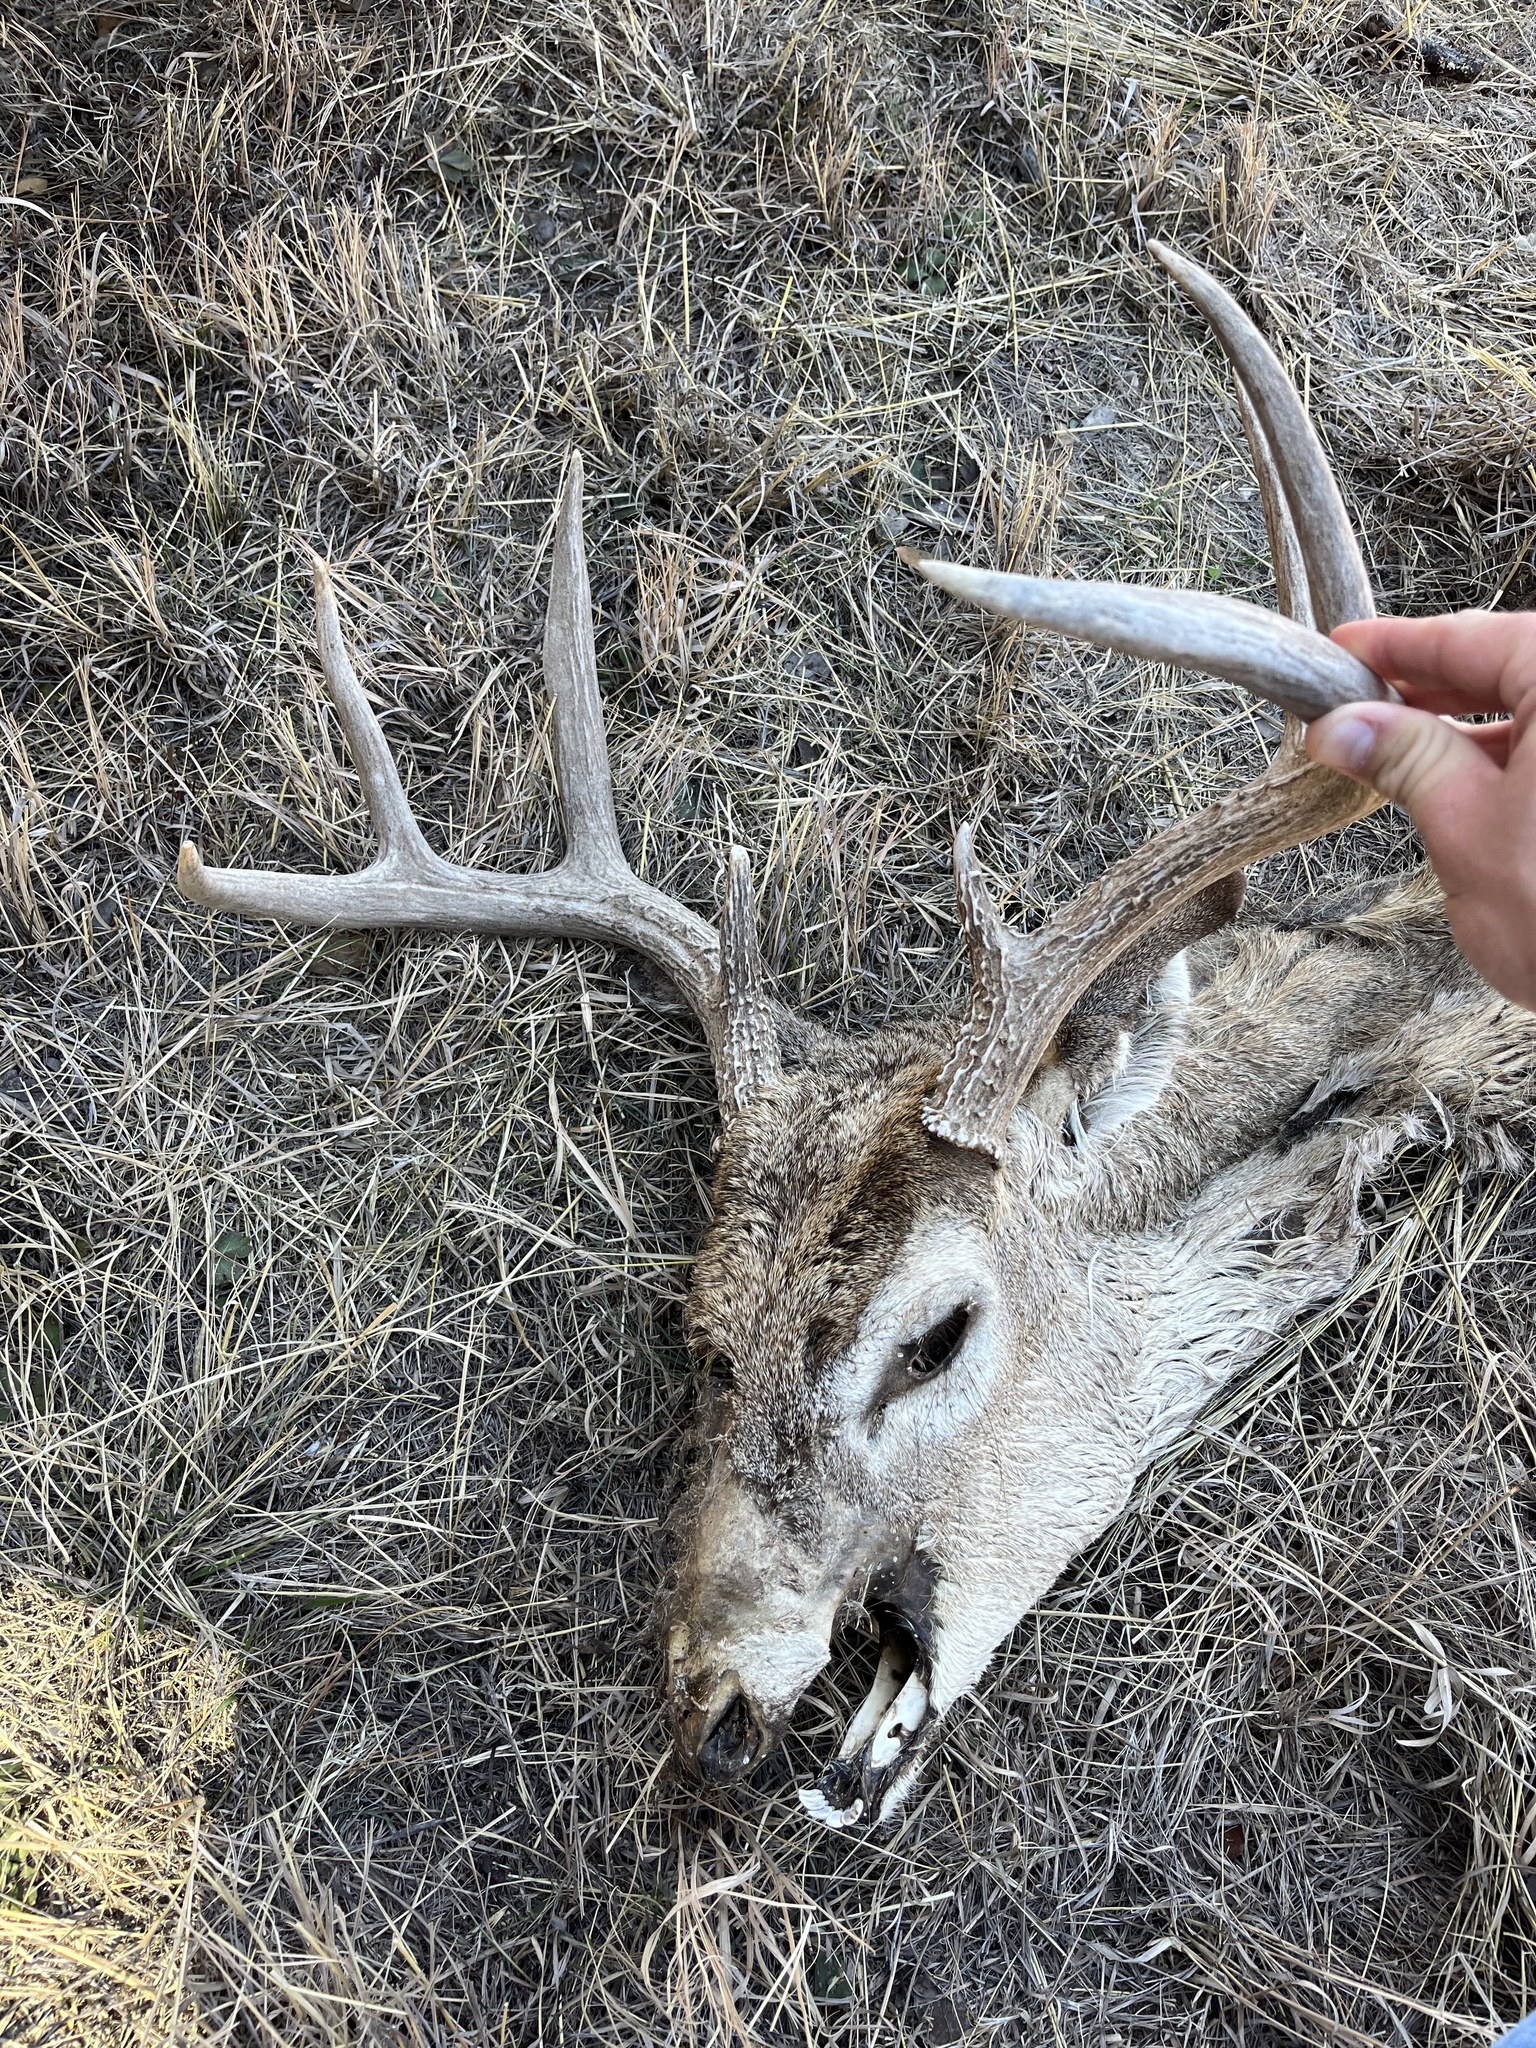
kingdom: Animalia
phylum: Chordata
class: Mammalia
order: Artiodactyla
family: Cervidae
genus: Odocoileus
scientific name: Odocoileus virginianus
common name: White-tailed deer
